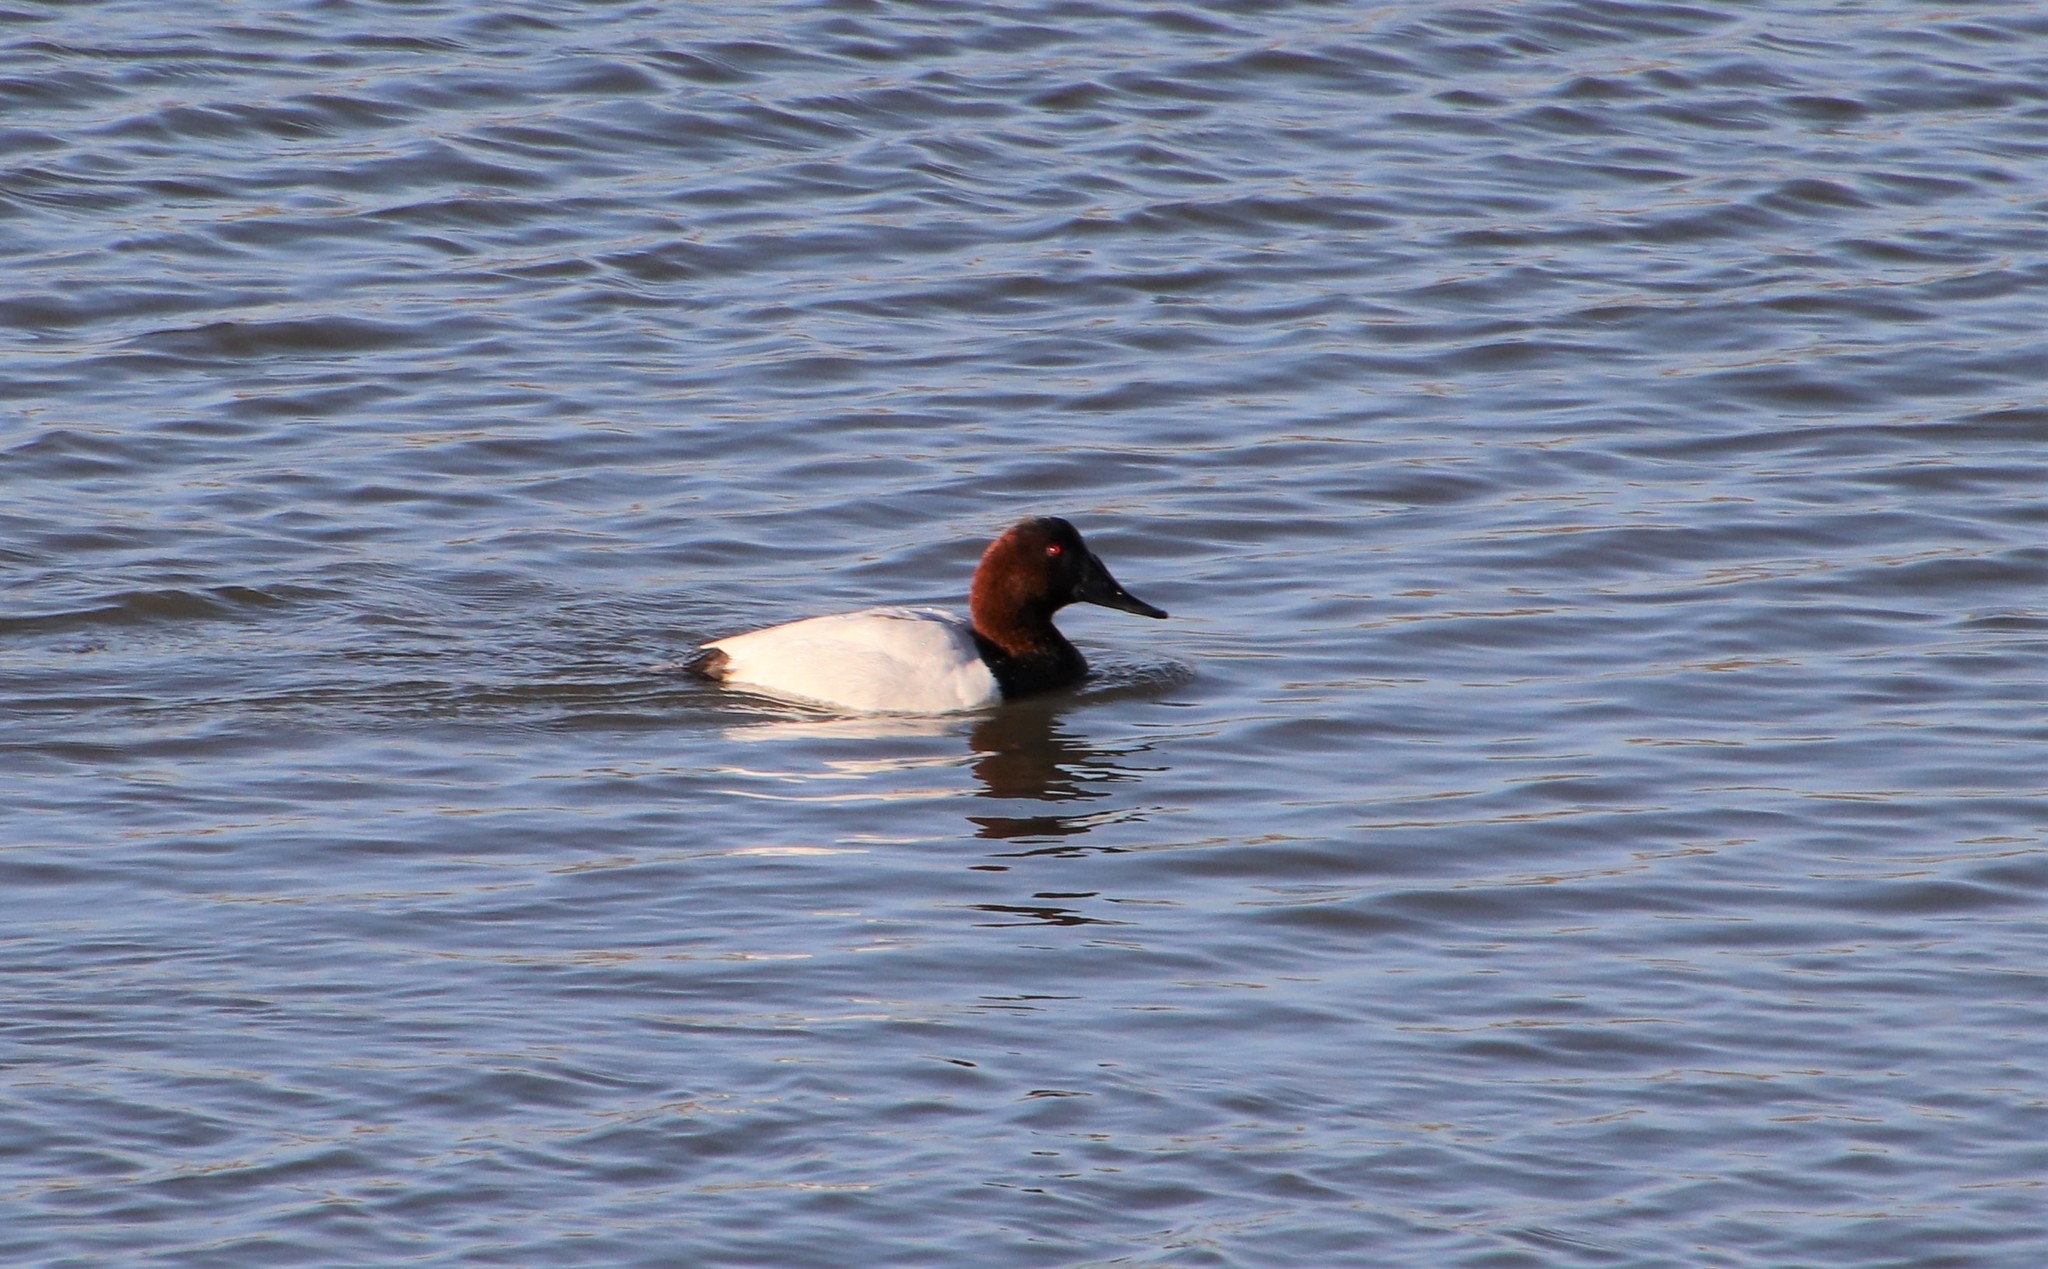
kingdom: Animalia
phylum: Chordata
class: Aves
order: Anseriformes
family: Anatidae
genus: Aythya
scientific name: Aythya valisineria
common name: Canvasback
